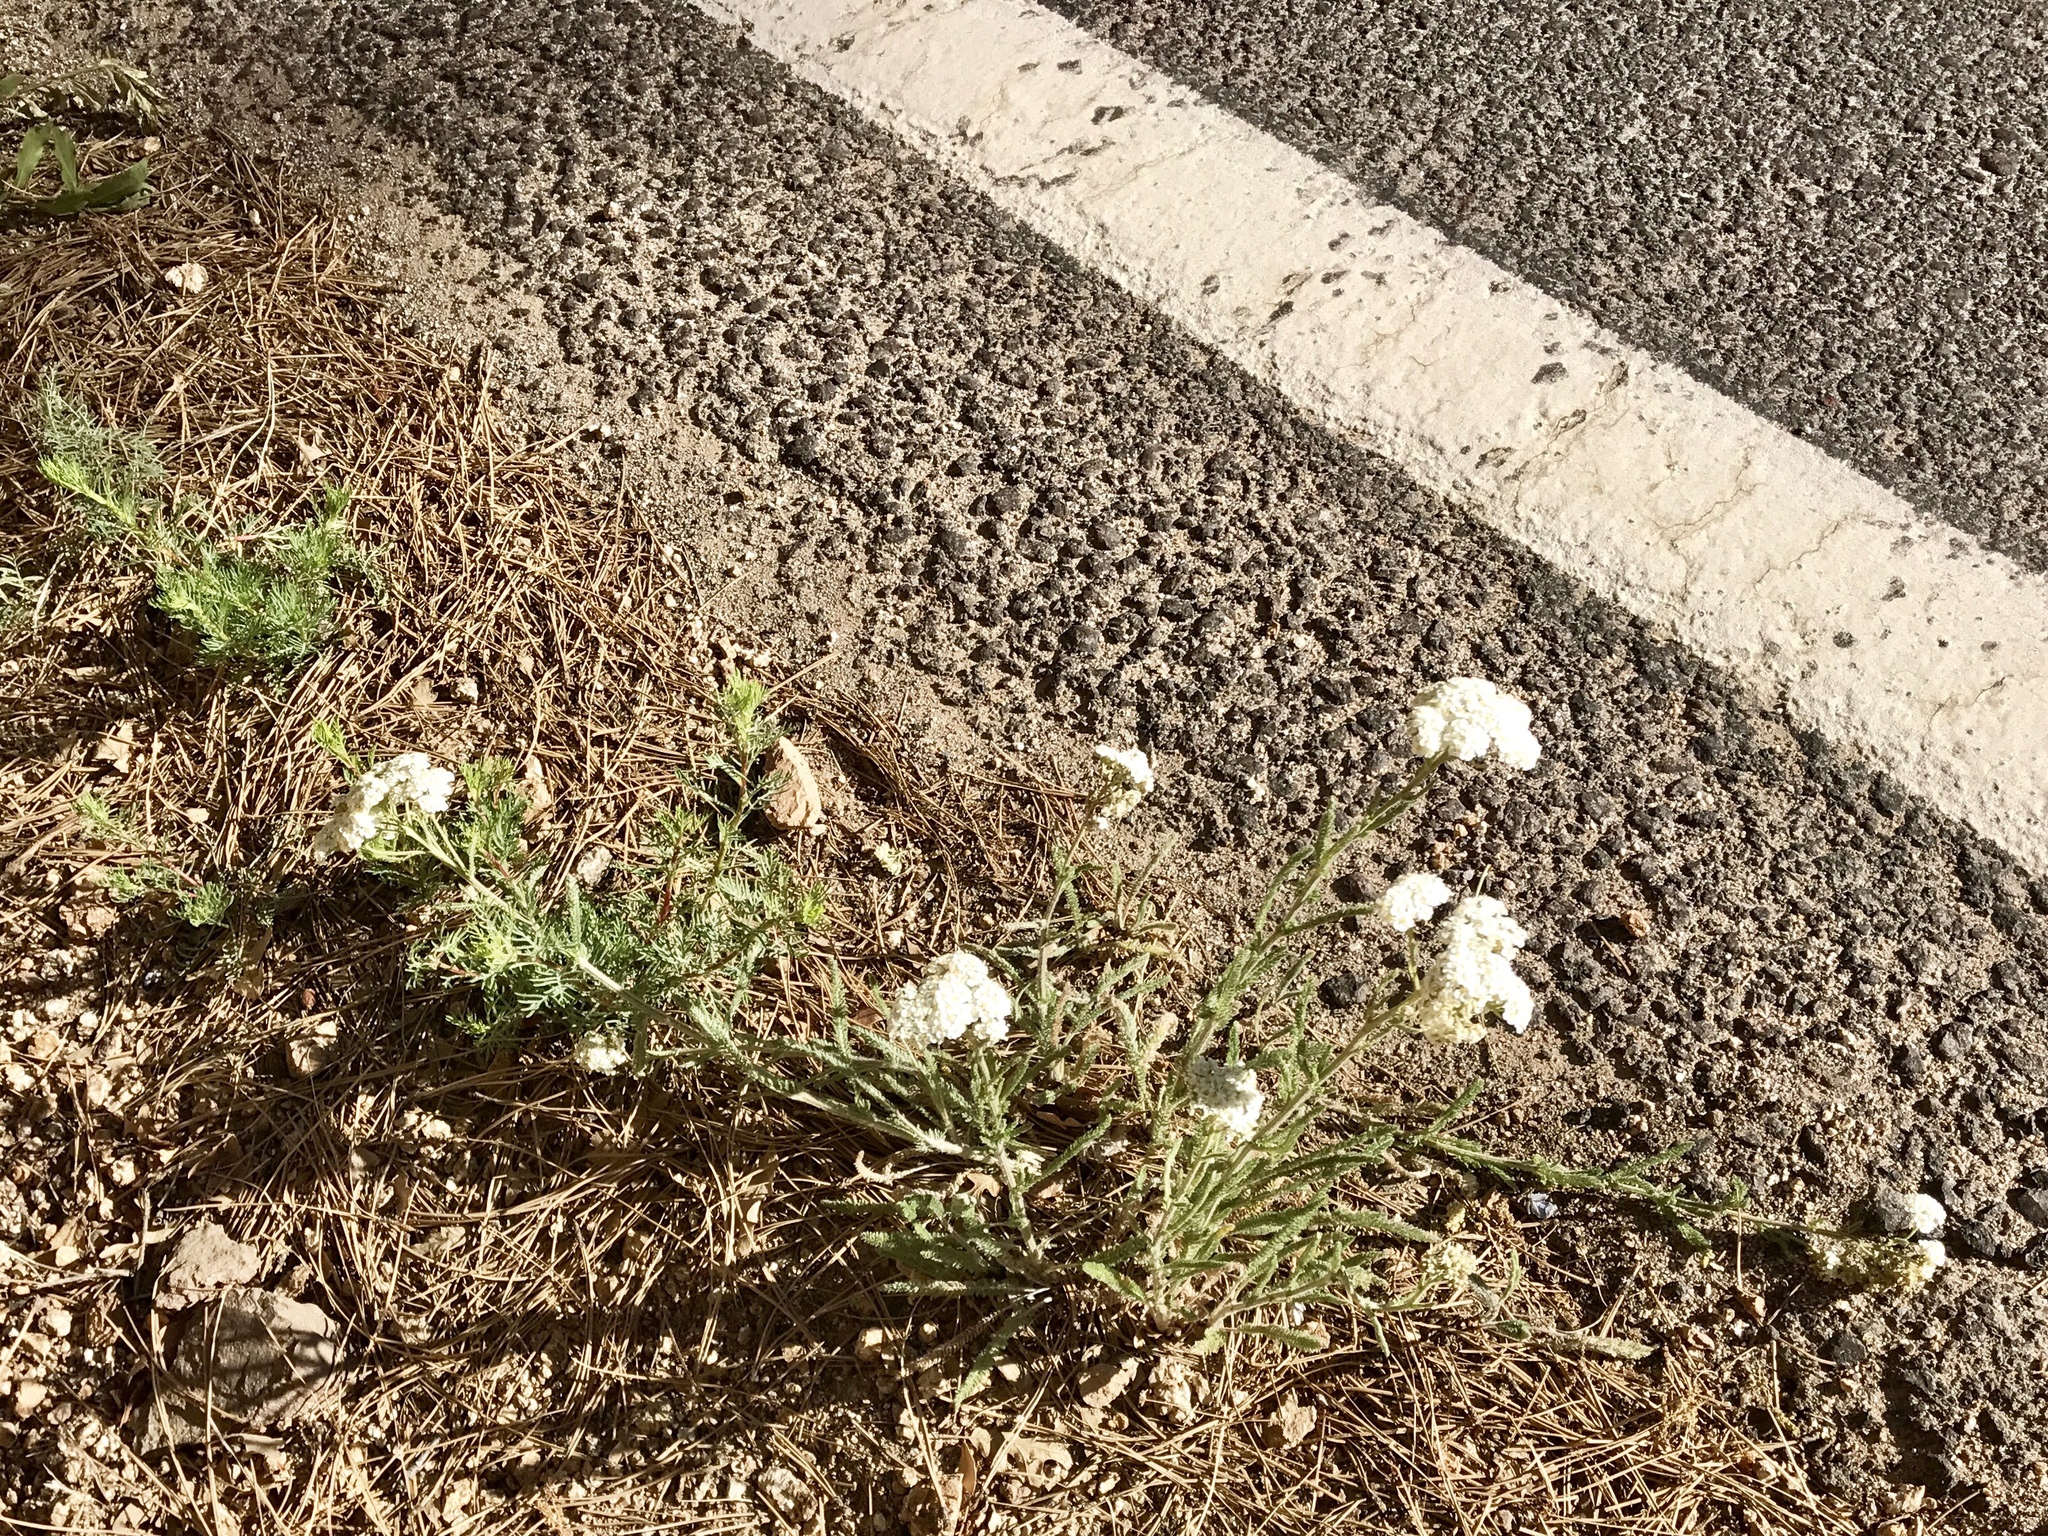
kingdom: Plantae
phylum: Tracheophyta
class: Magnoliopsida
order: Asterales
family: Asteraceae
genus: Achillea
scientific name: Achillea millefolium
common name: Yarrow
